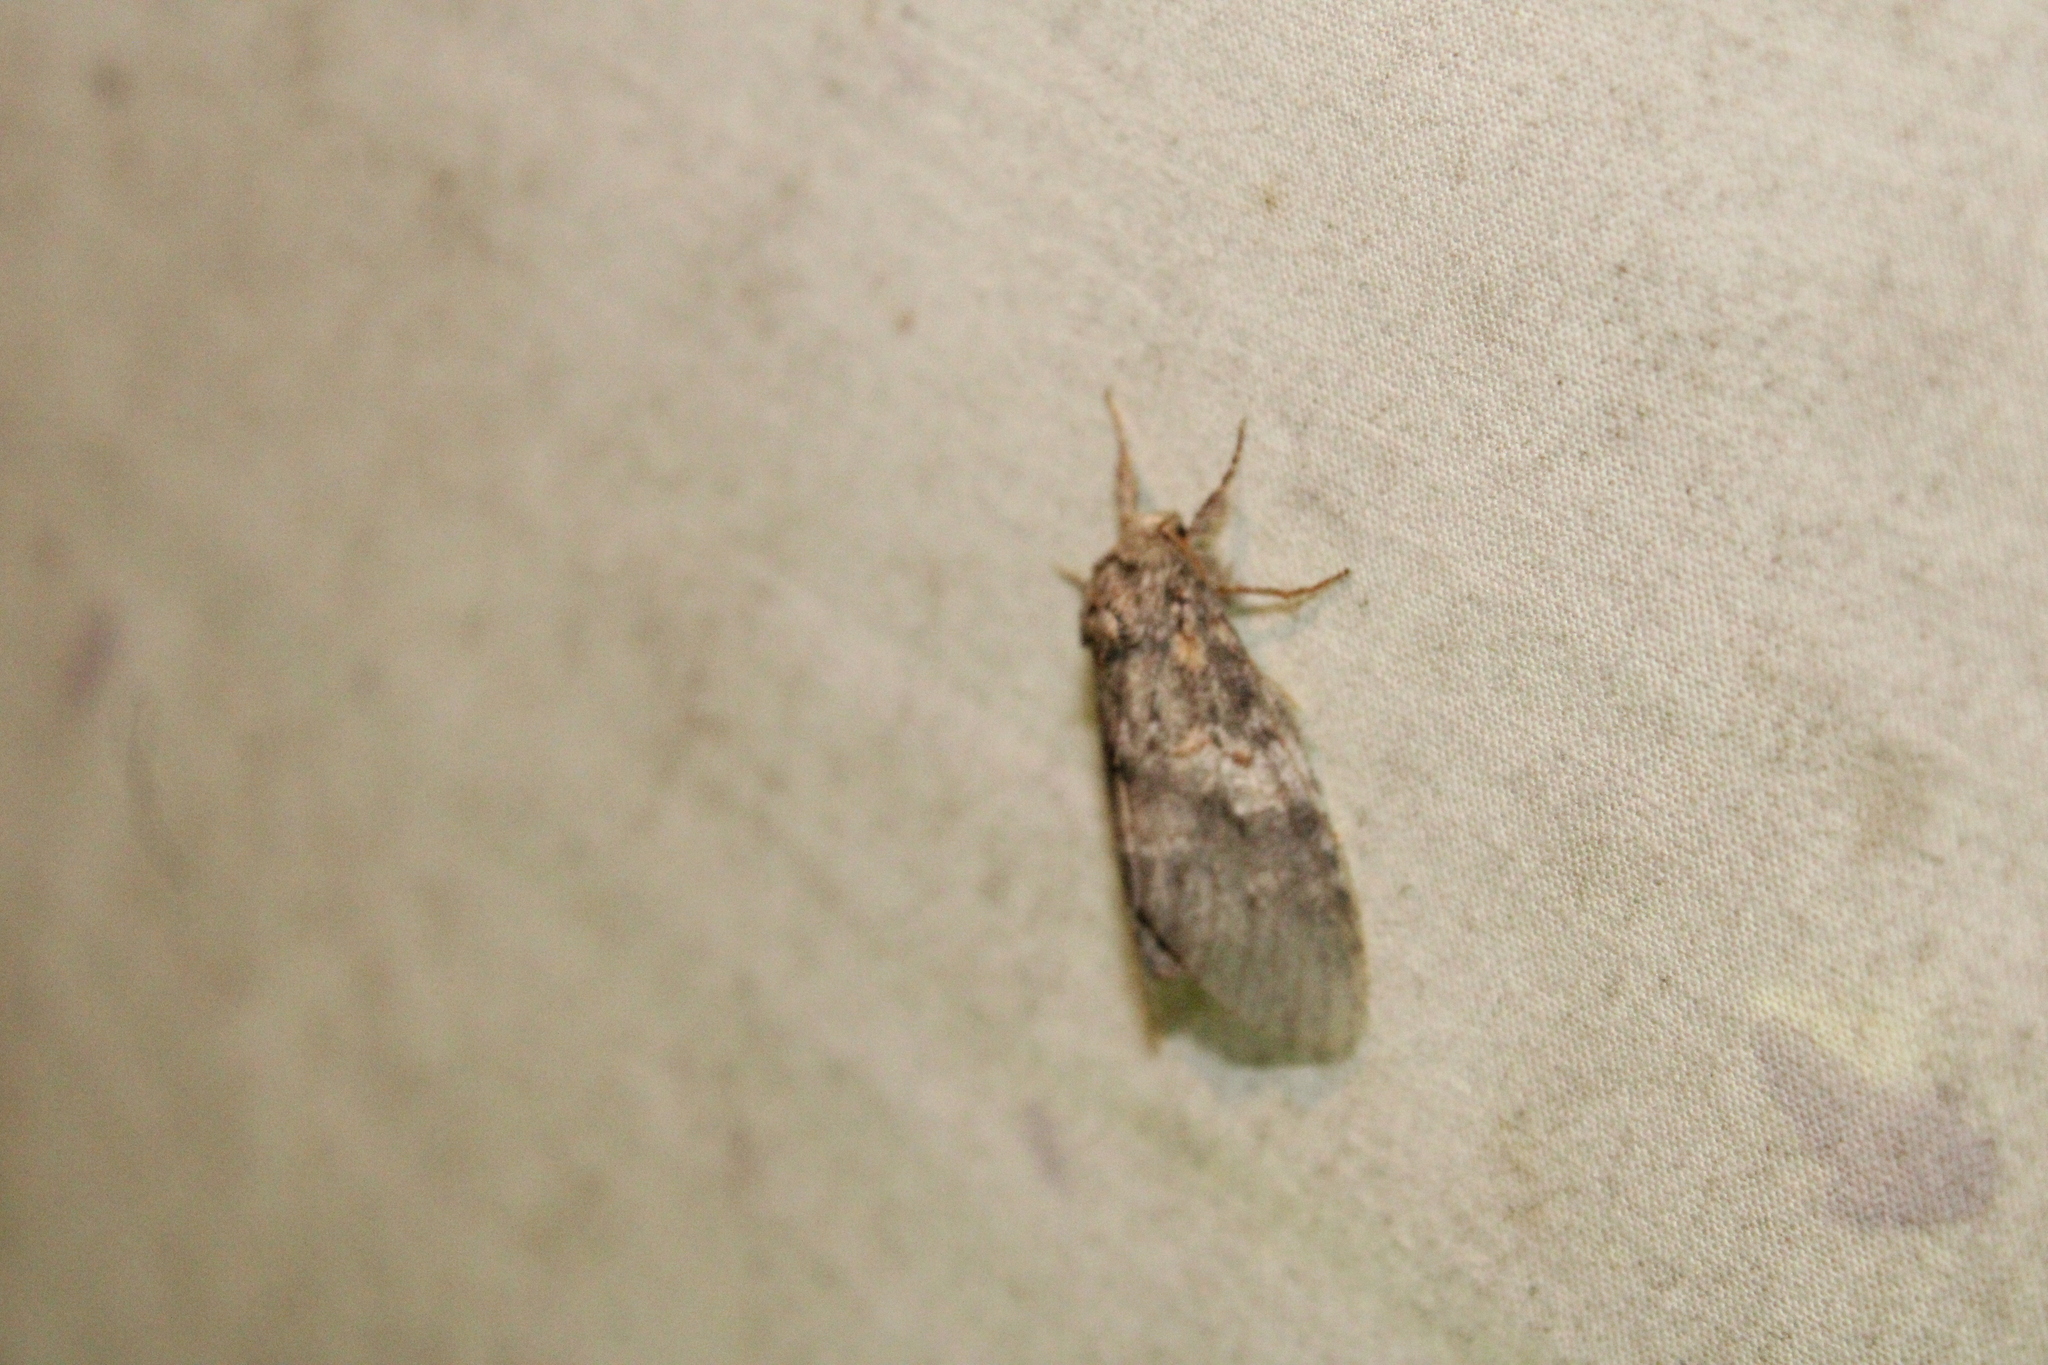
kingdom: Animalia
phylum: Arthropoda
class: Insecta
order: Lepidoptera
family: Notodontidae
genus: Peridea
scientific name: Peridea angulosa
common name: Angulose prominent
